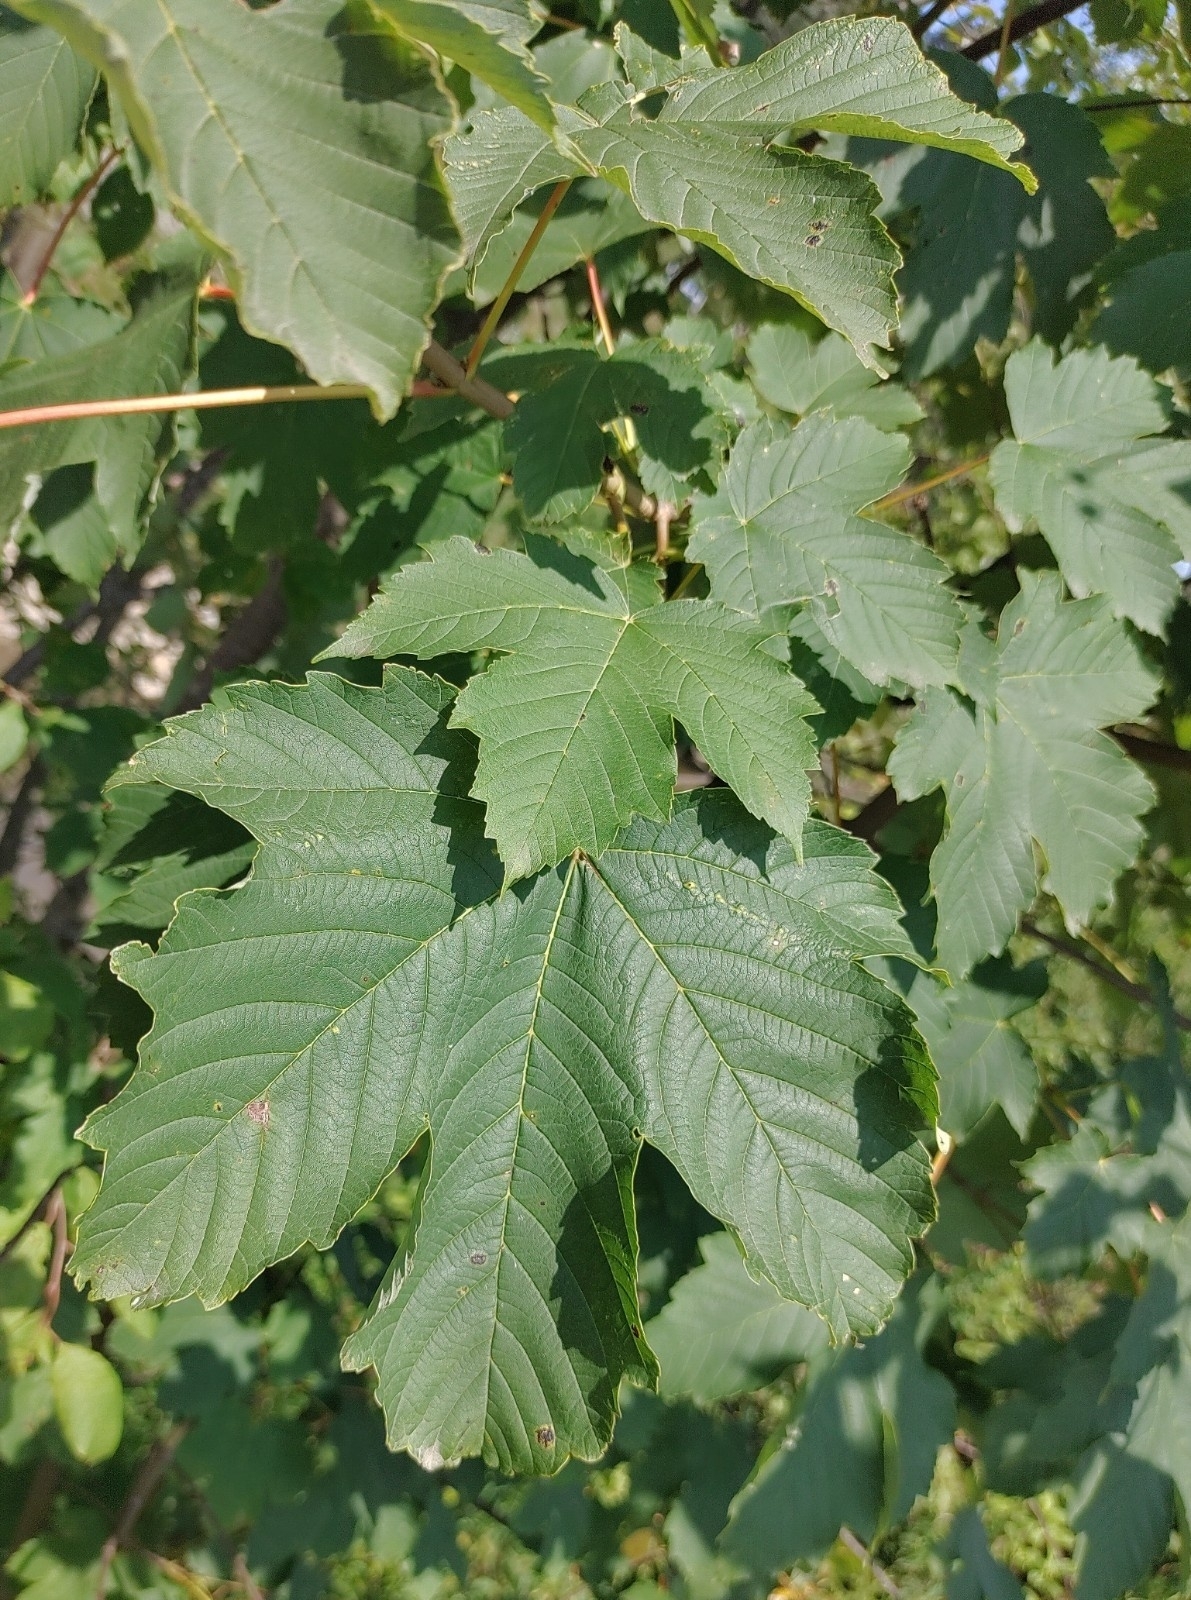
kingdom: Plantae
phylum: Tracheophyta
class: Magnoliopsida
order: Sapindales
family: Sapindaceae
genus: Acer
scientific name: Acer pseudoplatanus
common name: Sycamore
